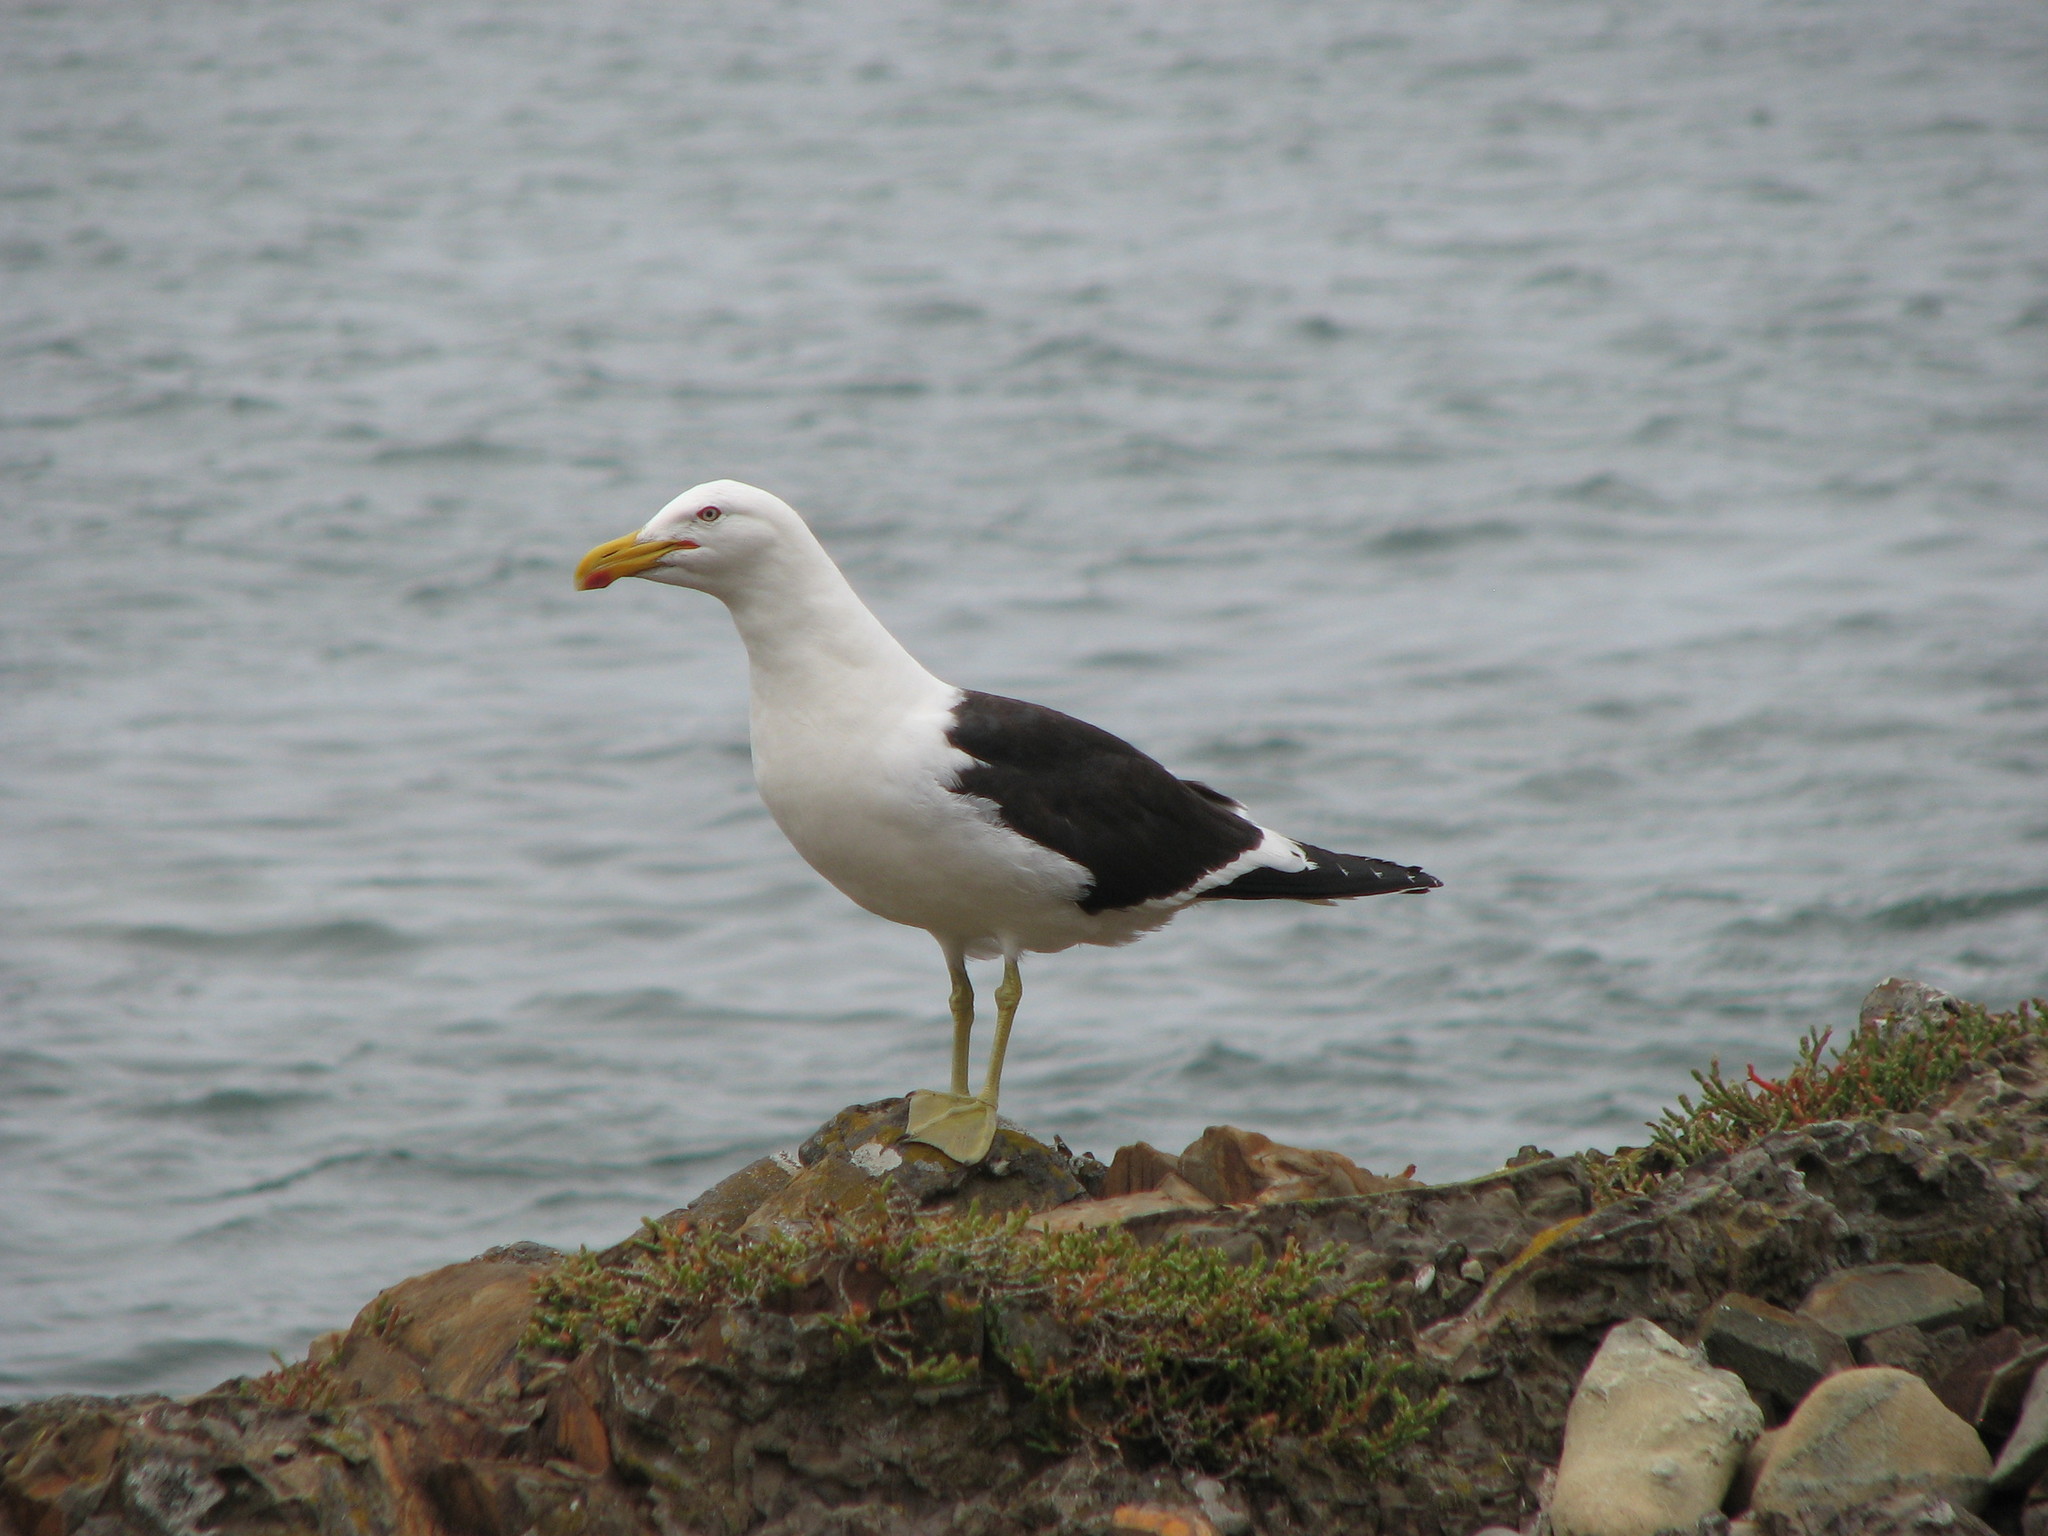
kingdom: Animalia
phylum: Chordata
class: Aves
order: Charadriiformes
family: Laridae
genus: Larus
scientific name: Larus dominicanus
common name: Kelp gull
